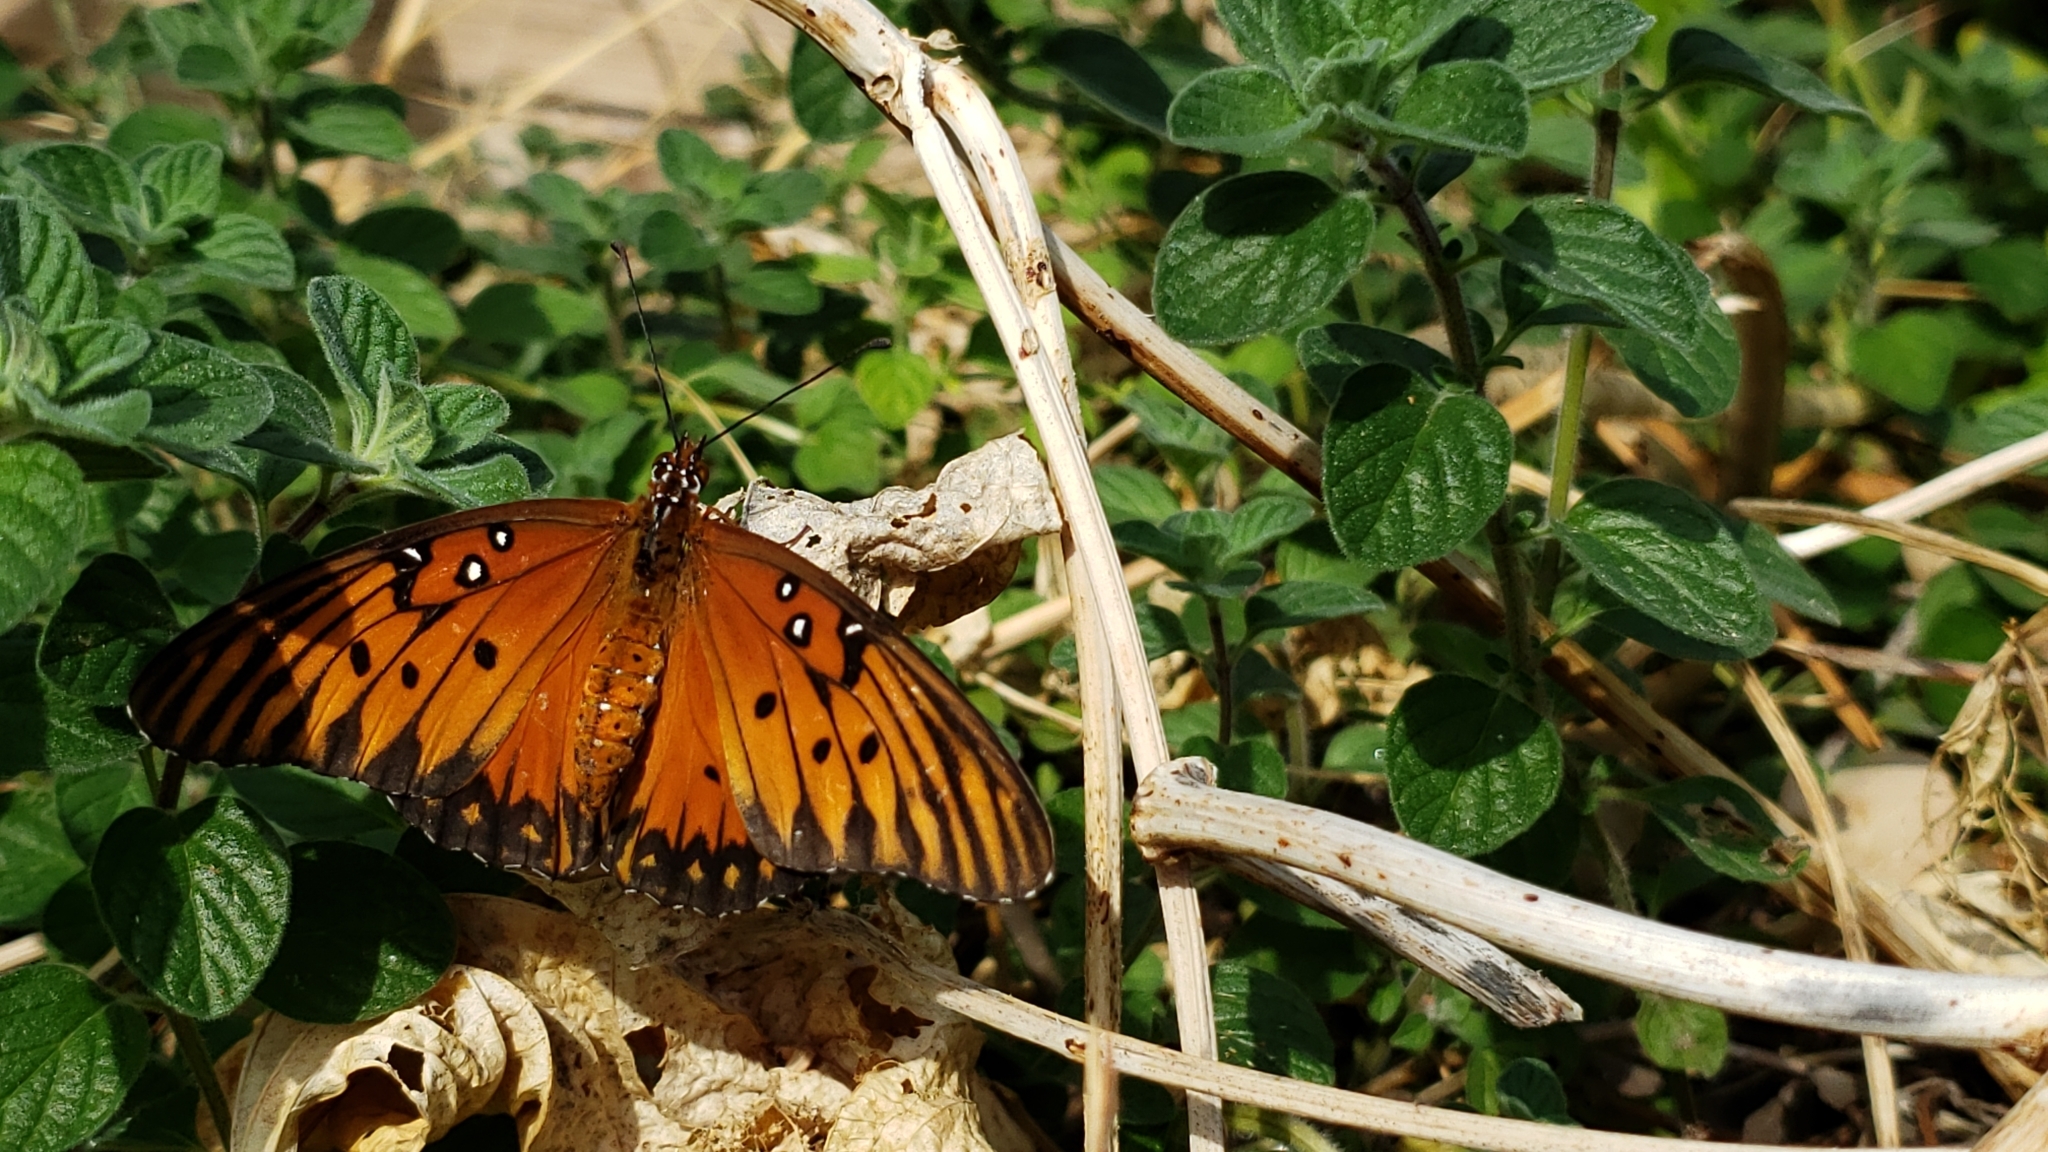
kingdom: Animalia
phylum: Arthropoda
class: Insecta
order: Lepidoptera
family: Nymphalidae
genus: Dione
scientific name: Dione vanillae
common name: Gulf fritillary
